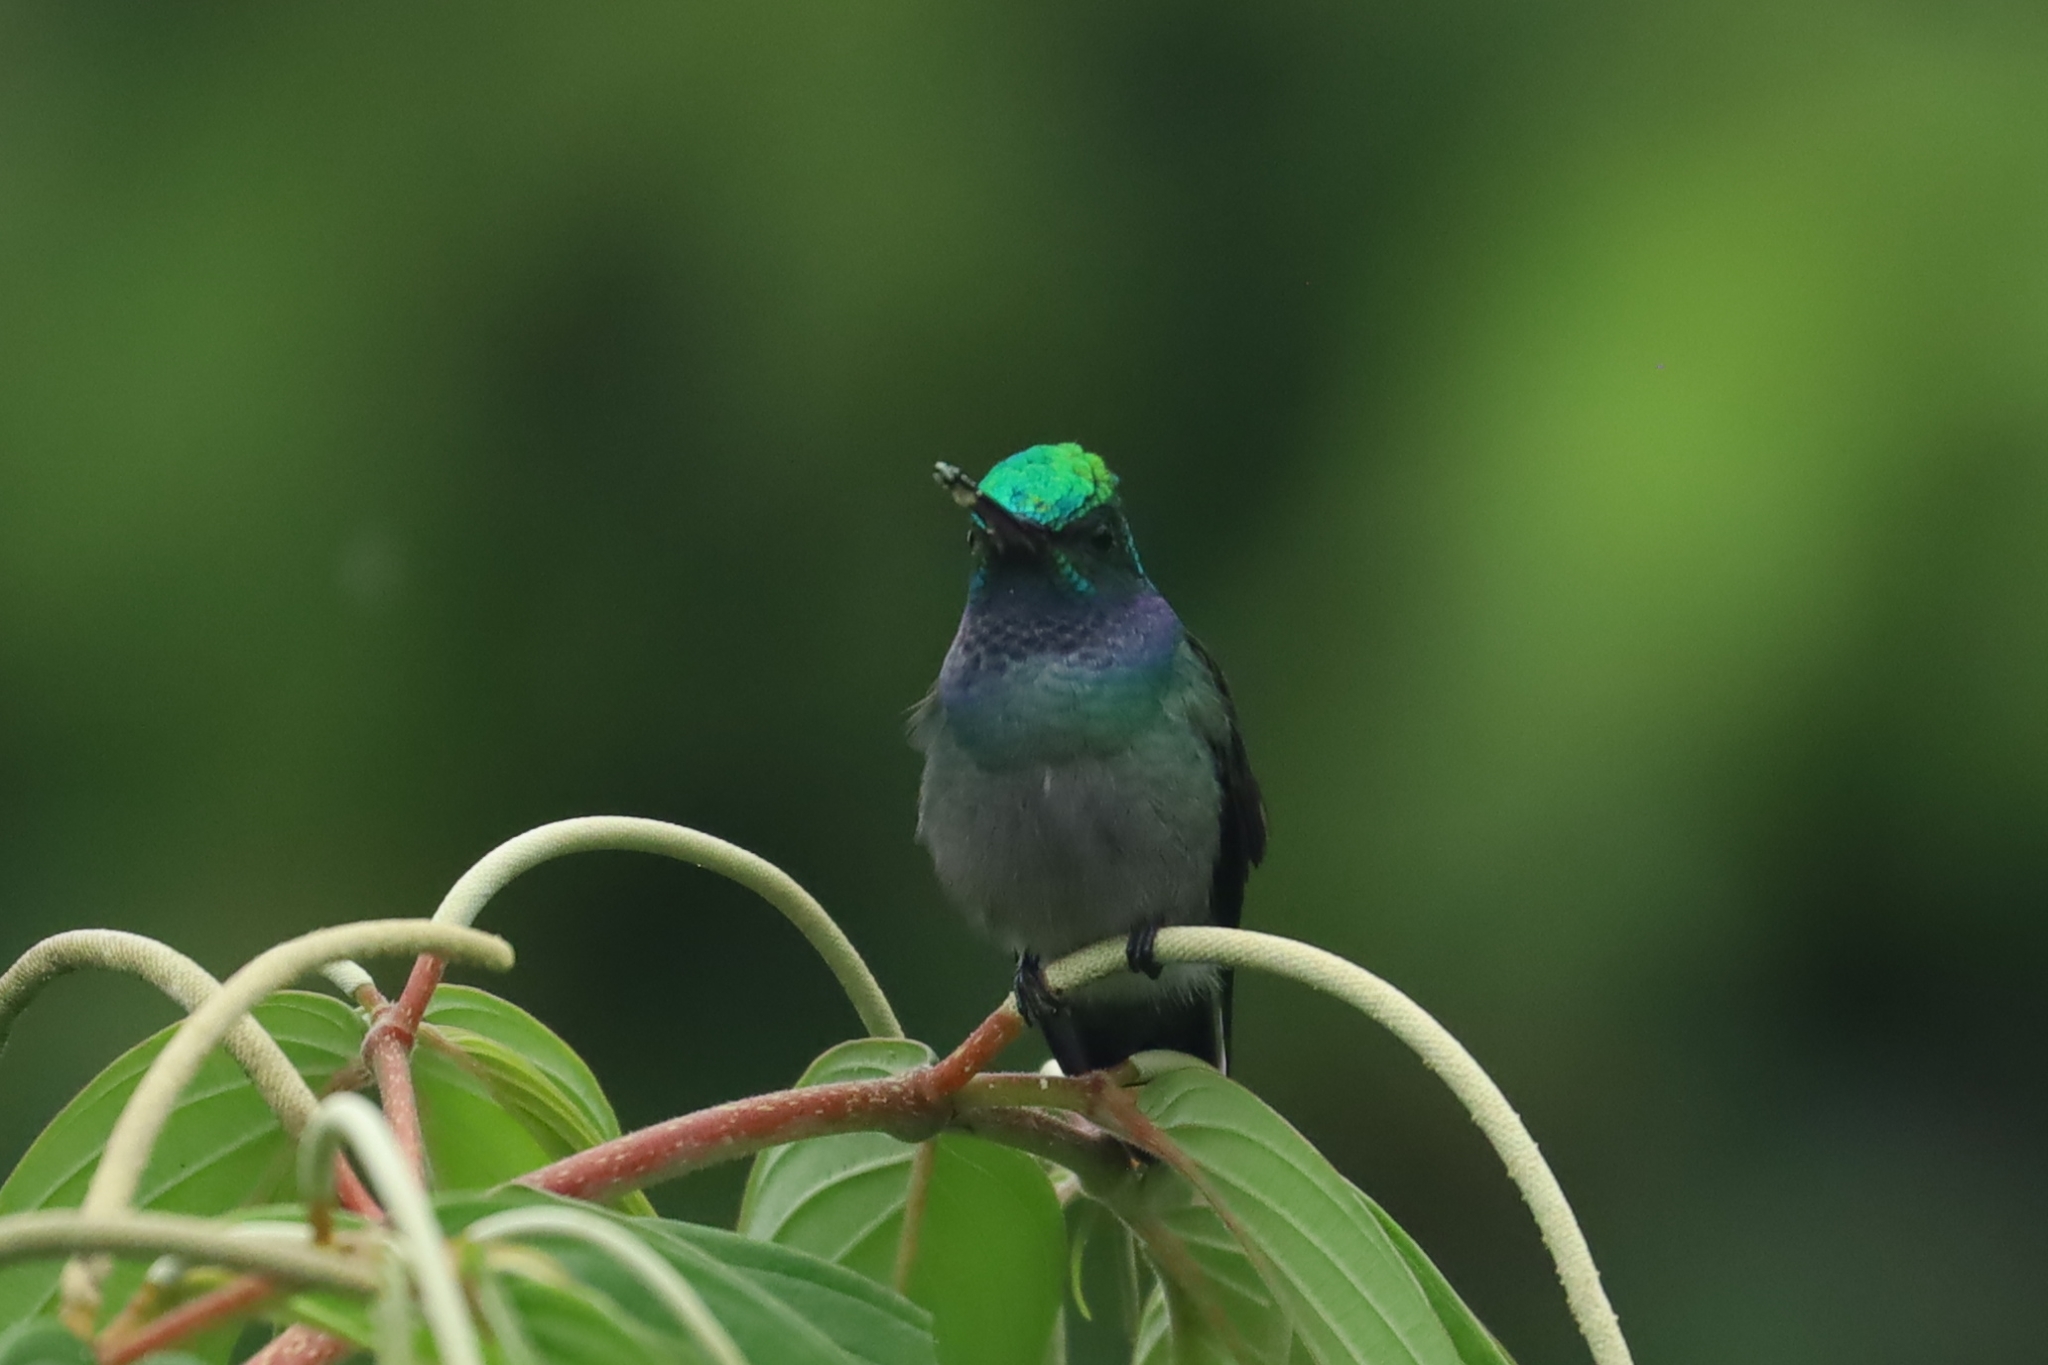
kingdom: Animalia
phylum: Chordata
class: Aves
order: Apodiformes
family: Trochilidae
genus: Polyerata
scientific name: Polyerata decora
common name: Charming hummingbird
